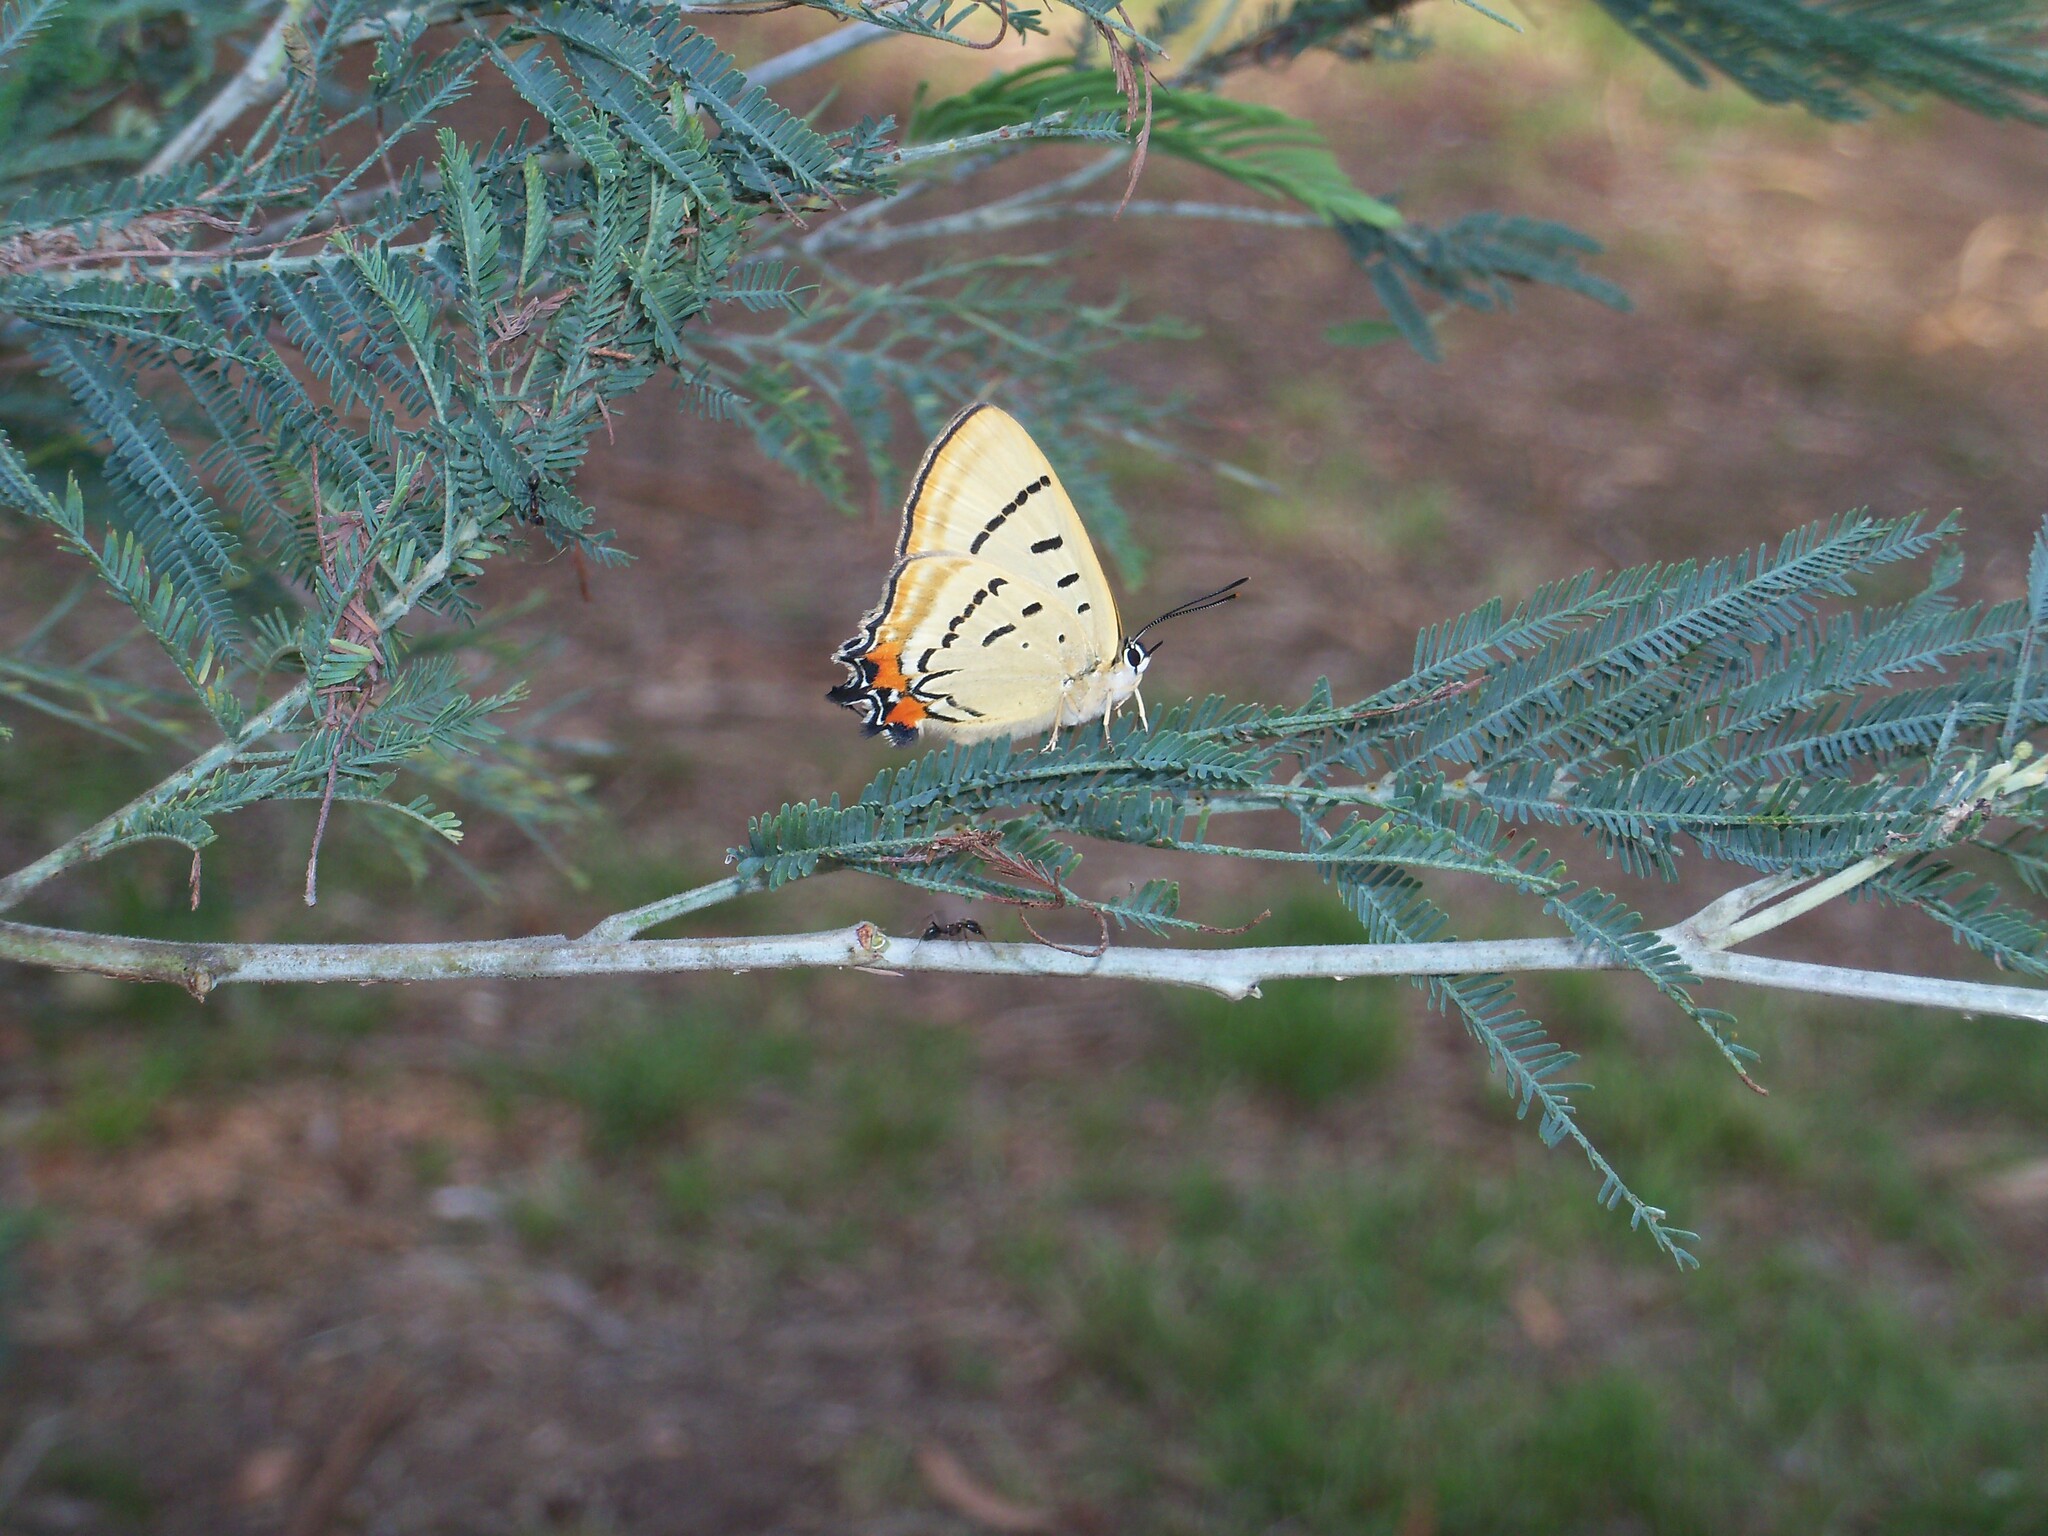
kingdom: Animalia
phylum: Arthropoda
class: Insecta
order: Lepidoptera
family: Lycaenidae
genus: Jalmenus
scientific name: Jalmenus evagoras
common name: Common imperial blue
